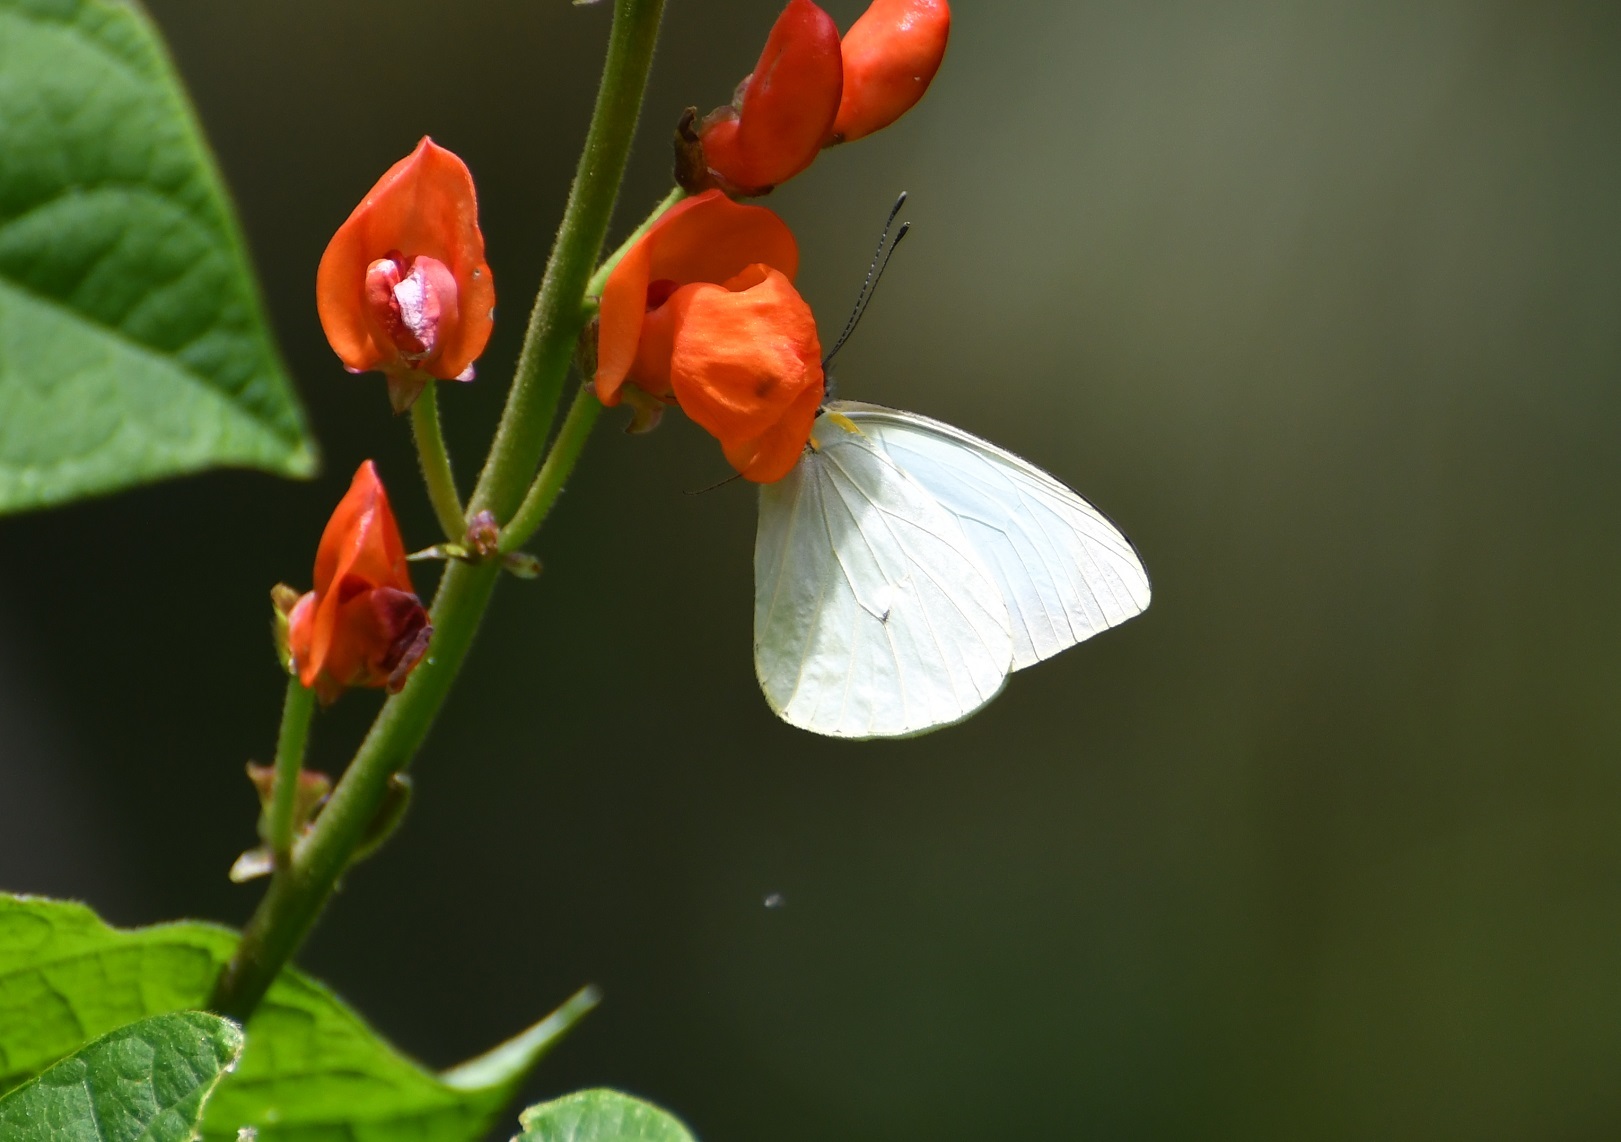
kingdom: Animalia
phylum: Arthropoda
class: Insecta
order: Lepidoptera
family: Pieridae
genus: Leptophobia
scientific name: Leptophobia aripa
